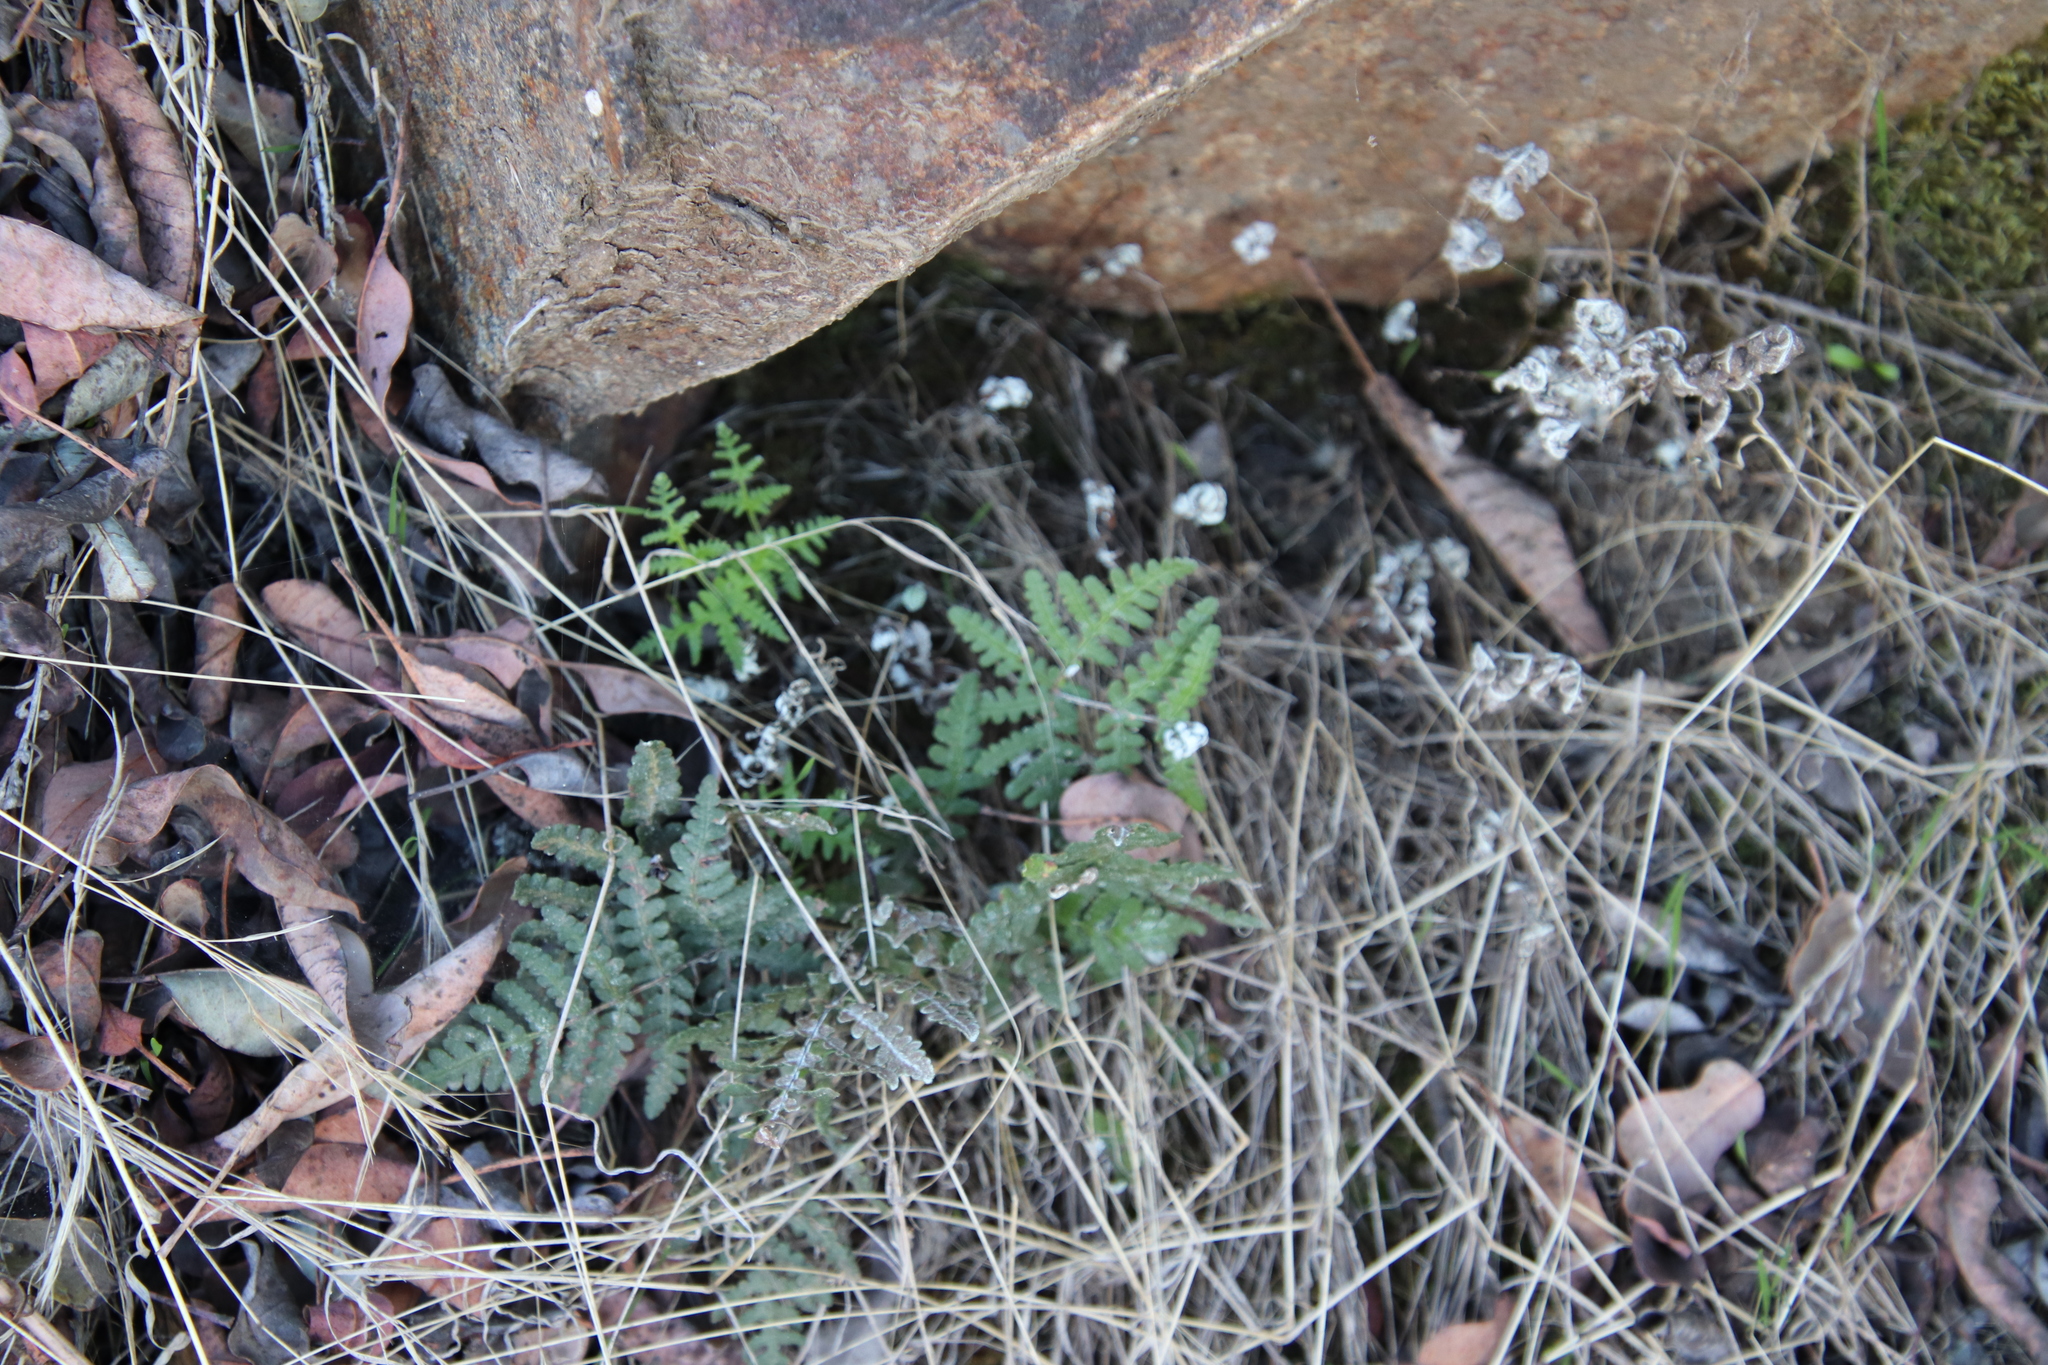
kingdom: Plantae
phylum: Tracheophyta
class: Polypodiopsida
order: Polypodiales
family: Pteridaceae
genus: Pentagramma
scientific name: Pentagramma glanduloviscida
